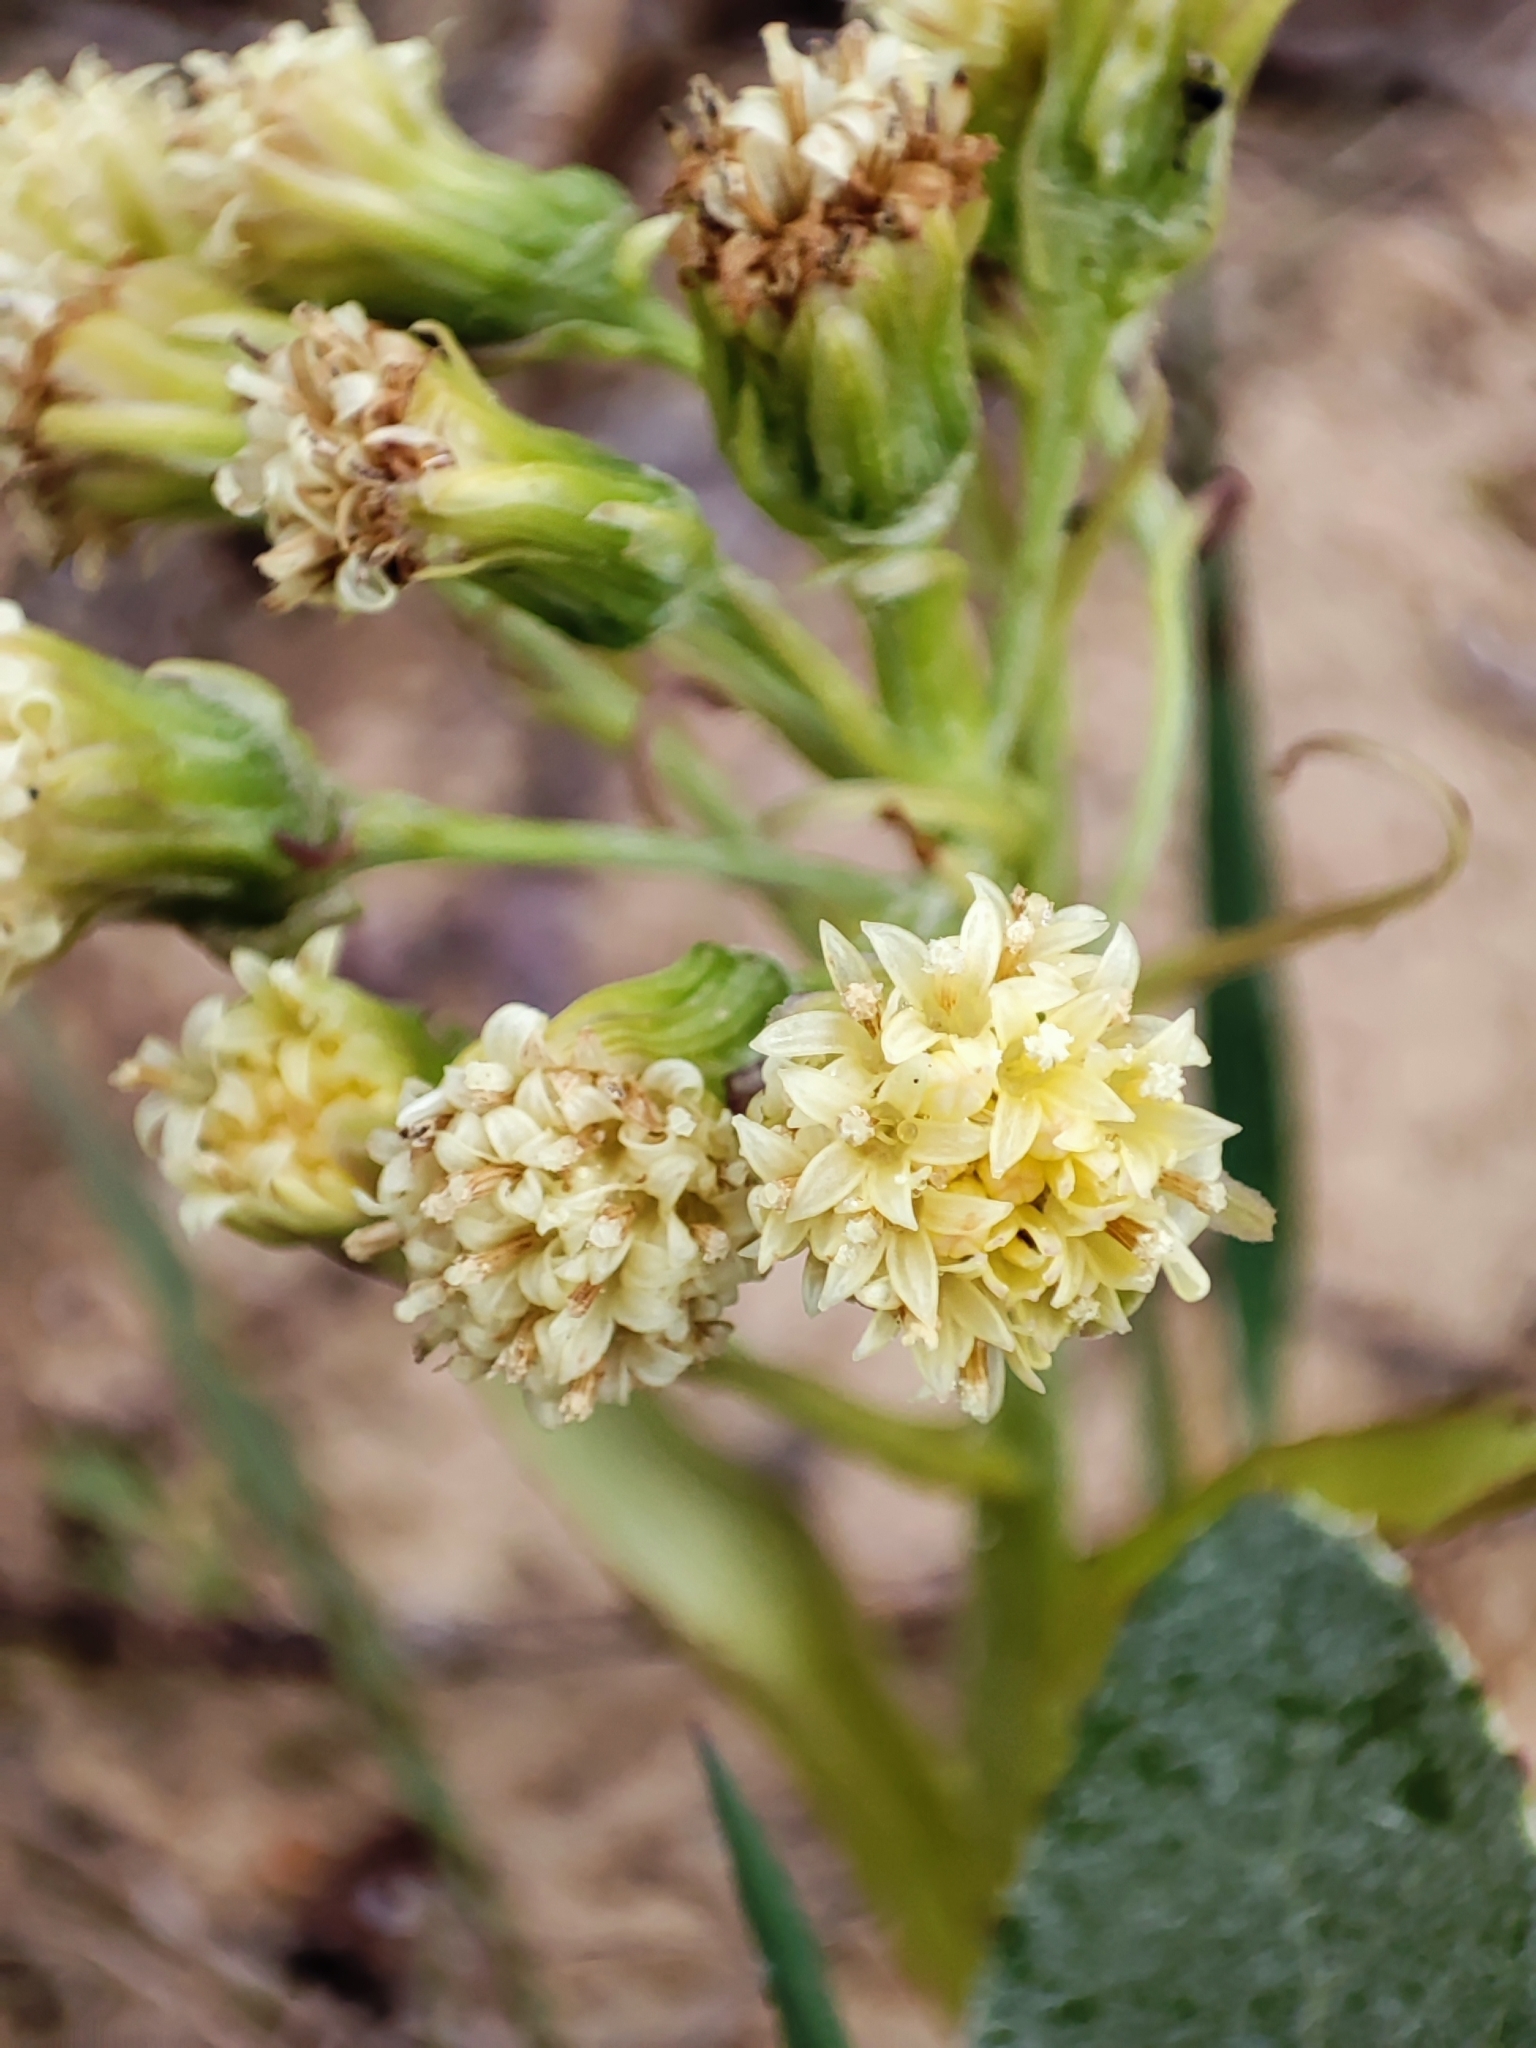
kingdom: Plantae
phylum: Tracheophyta
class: Magnoliopsida
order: Asterales
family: Asteraceae
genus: Petasites
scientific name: Petasites spurius
